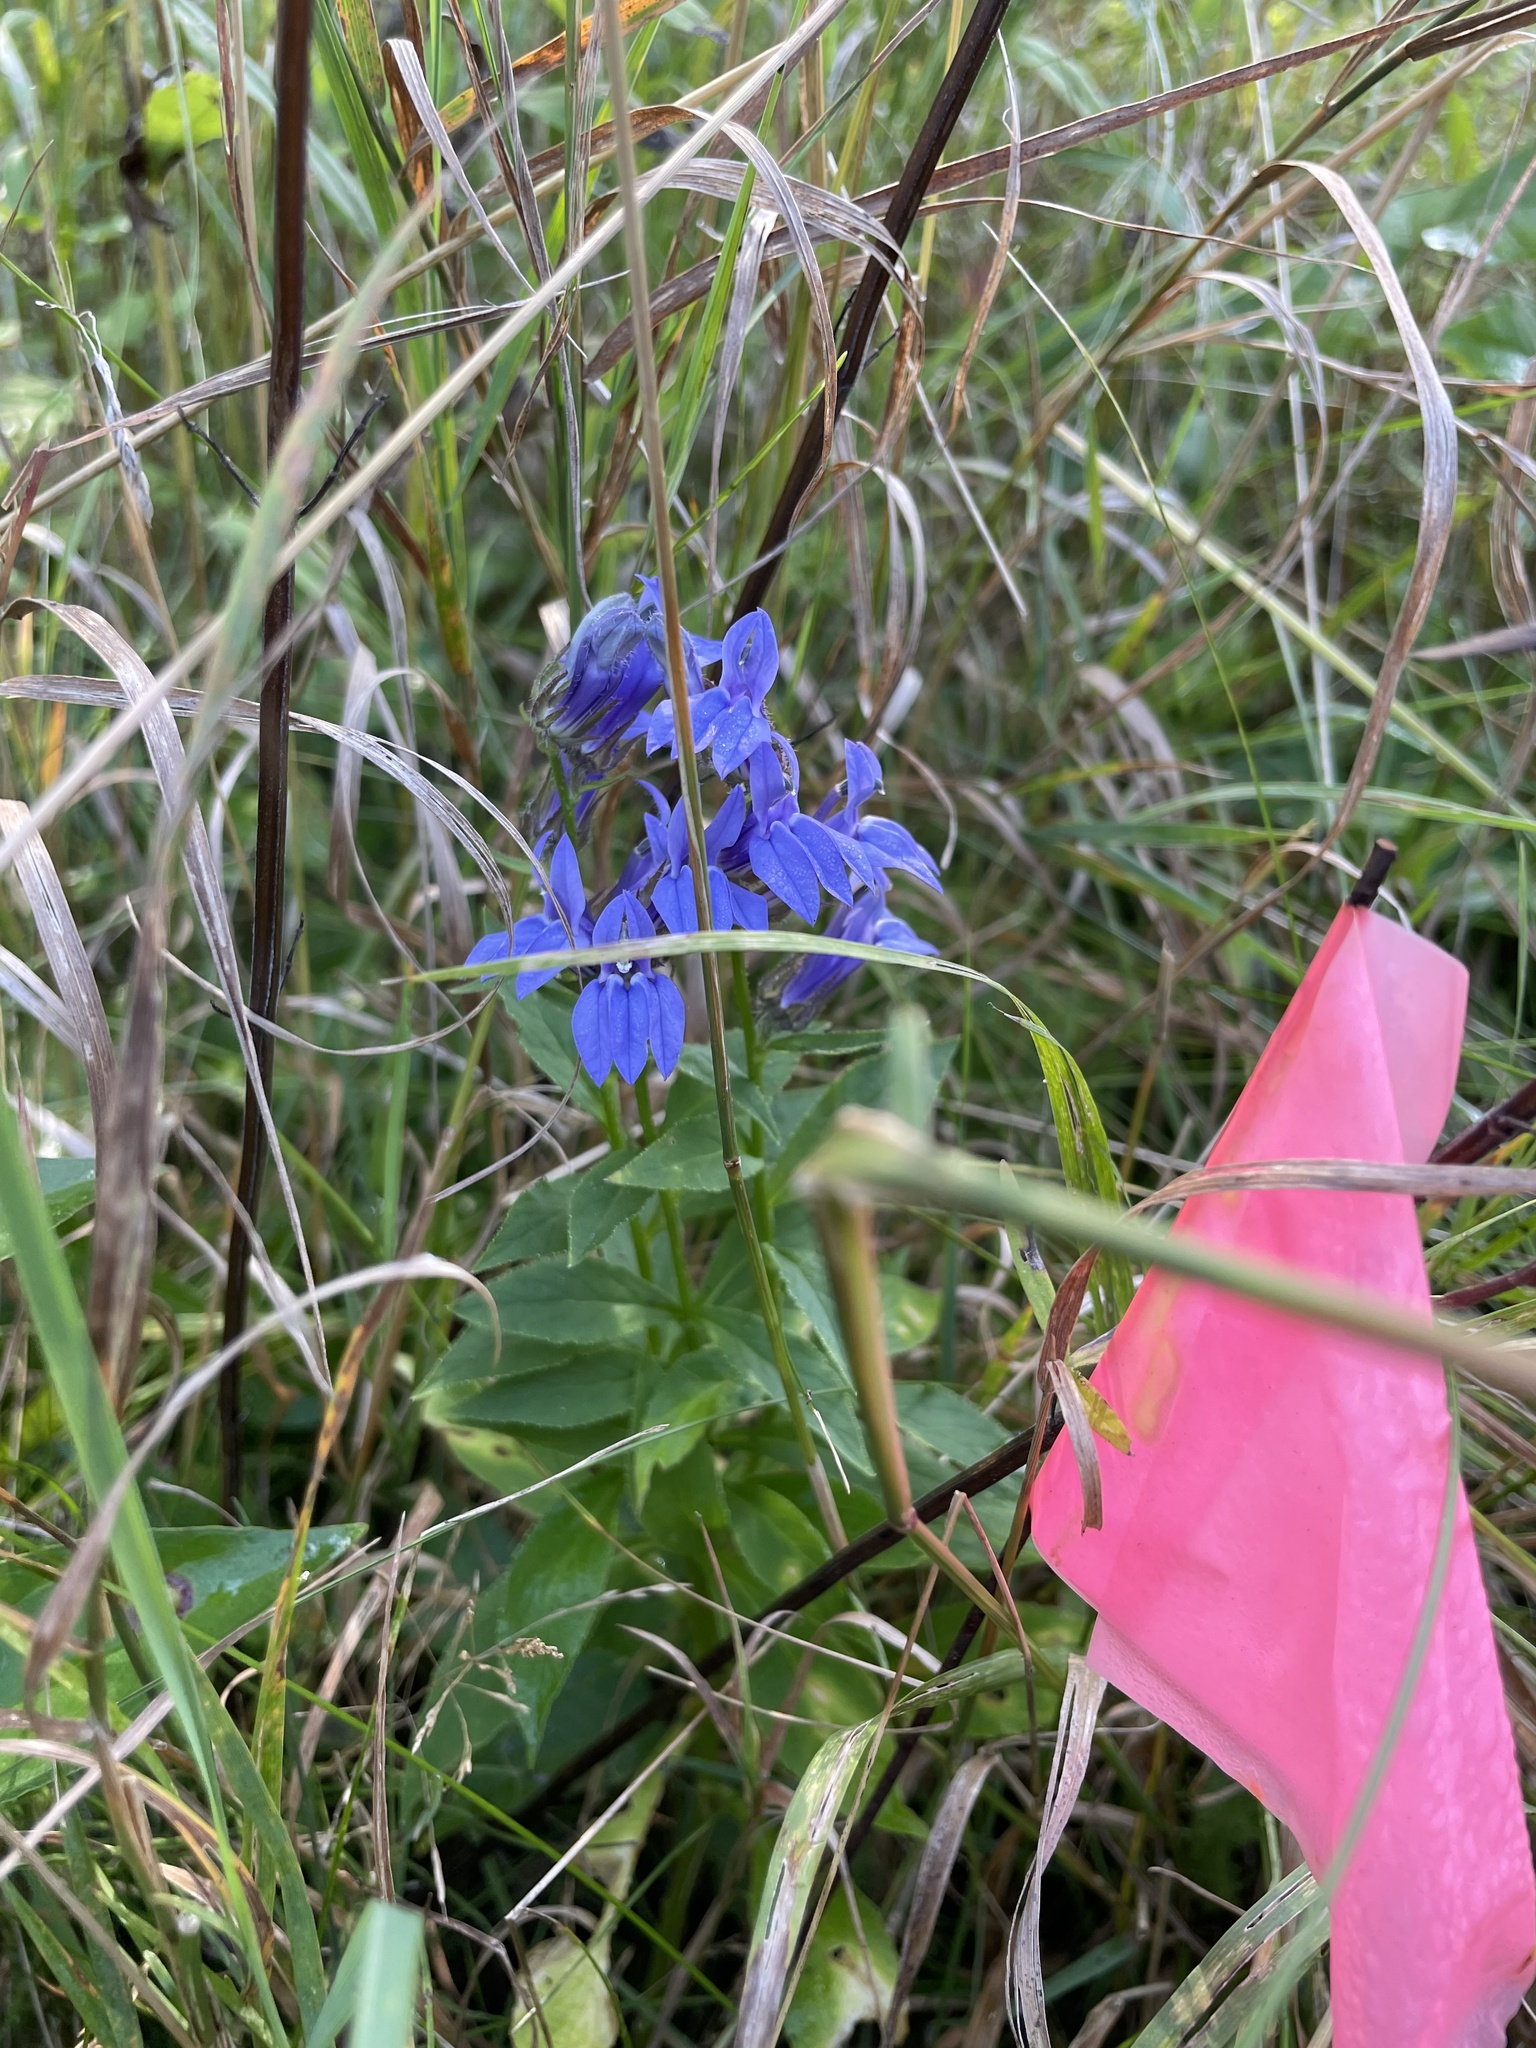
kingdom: Plantae
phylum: Tracheophyta
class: Magnoliopsida
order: Asterales
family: Campanulaceae
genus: Lobelia
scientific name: Lobelia siphilitica
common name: Great lobelia
